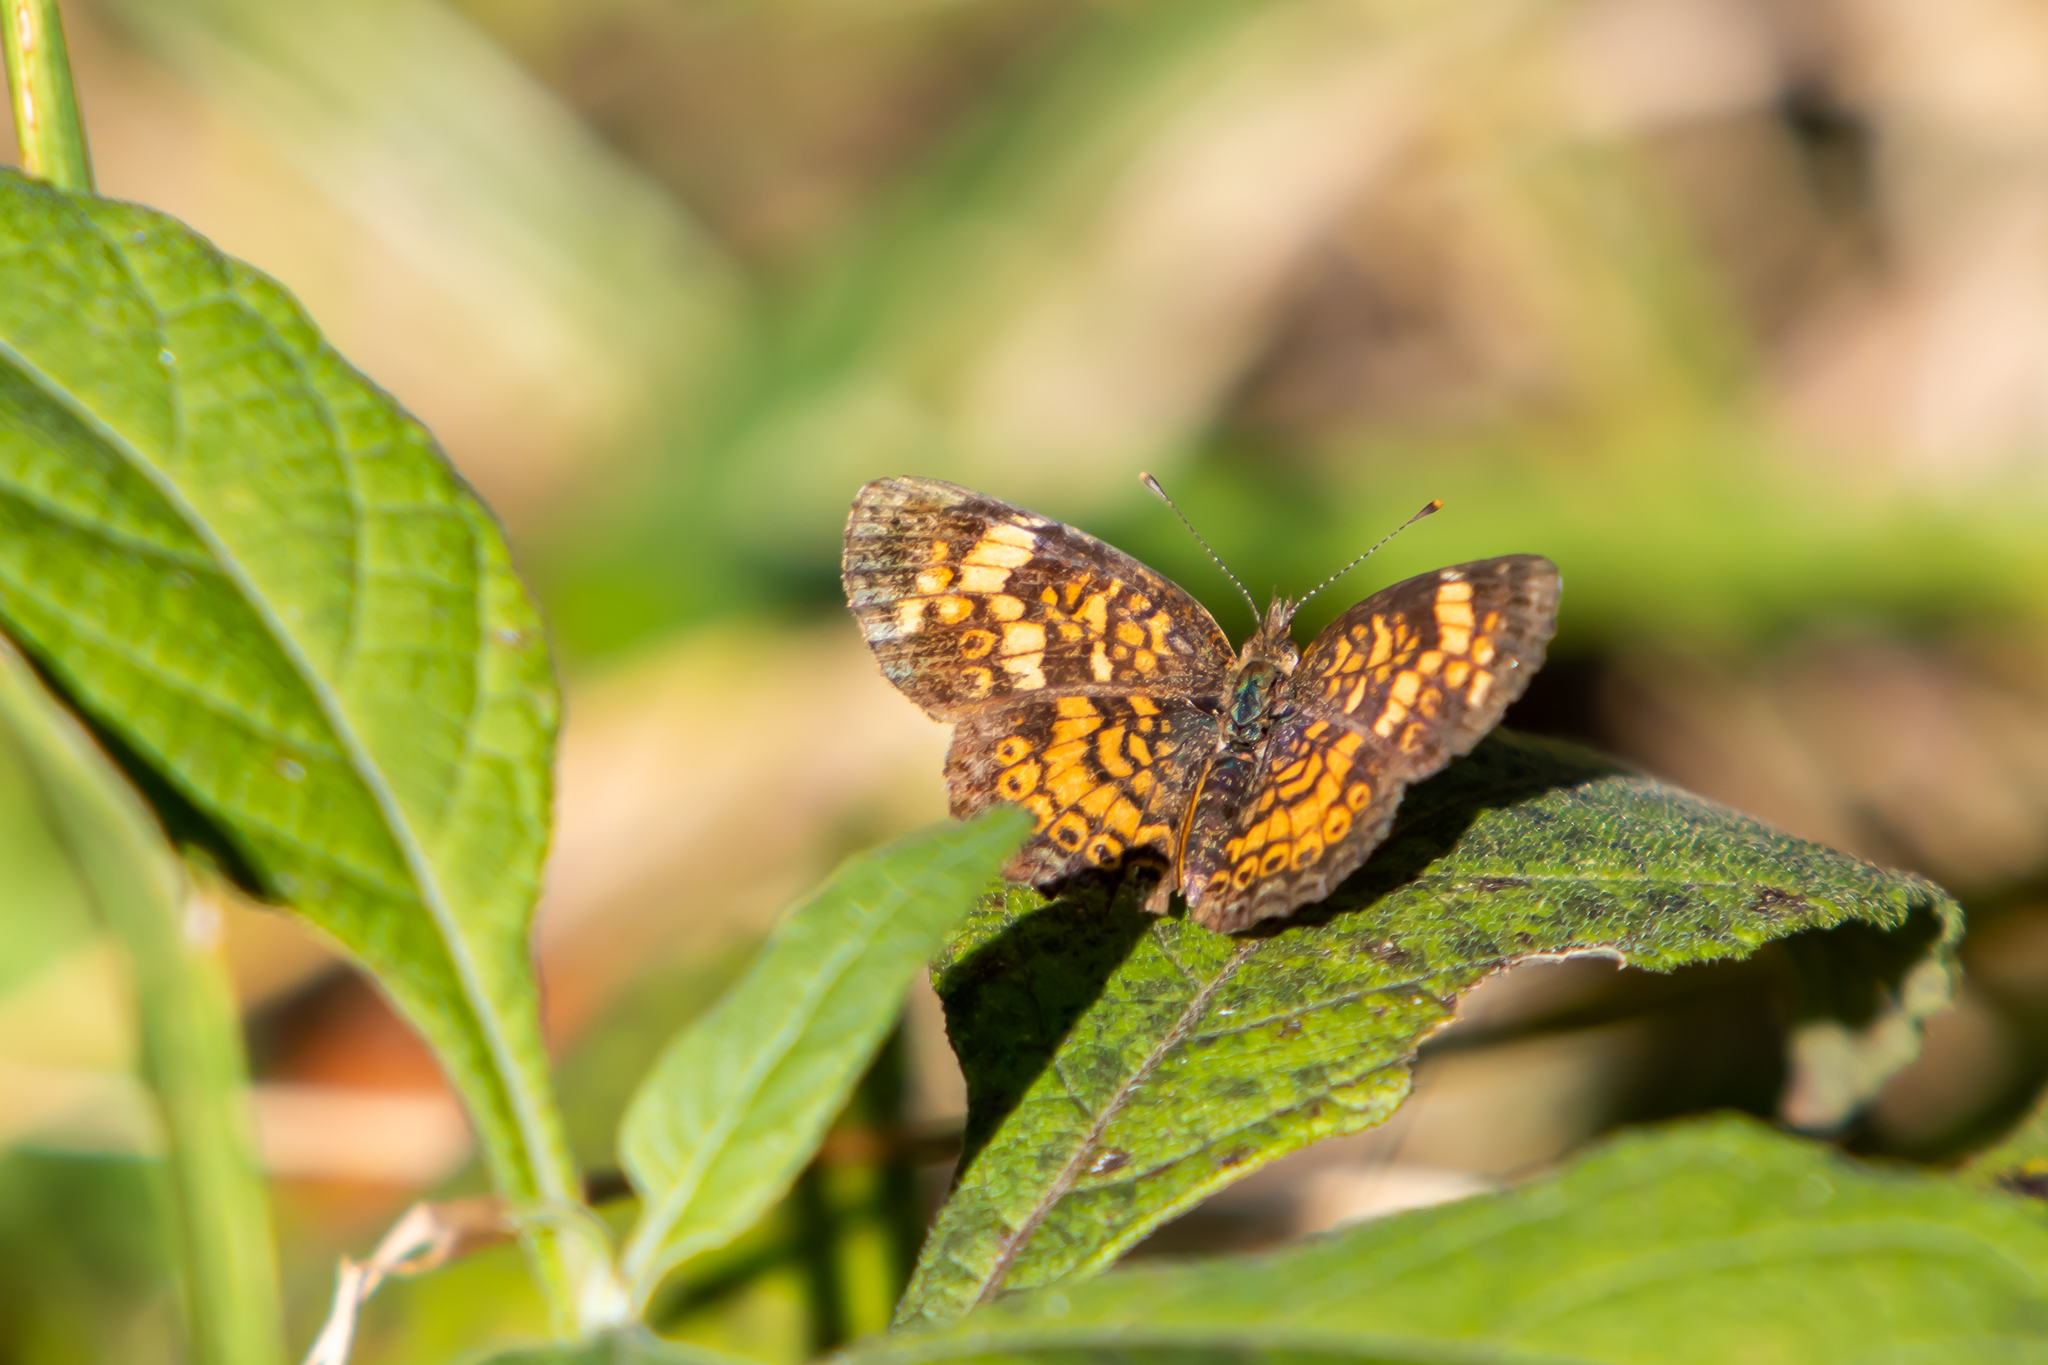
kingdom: Animalia
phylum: Arthropoda
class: Insecta
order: Lepidoptera
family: Nymphalidae
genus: Phyciodes
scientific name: Phyciodes tharos
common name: Pearl crescent
